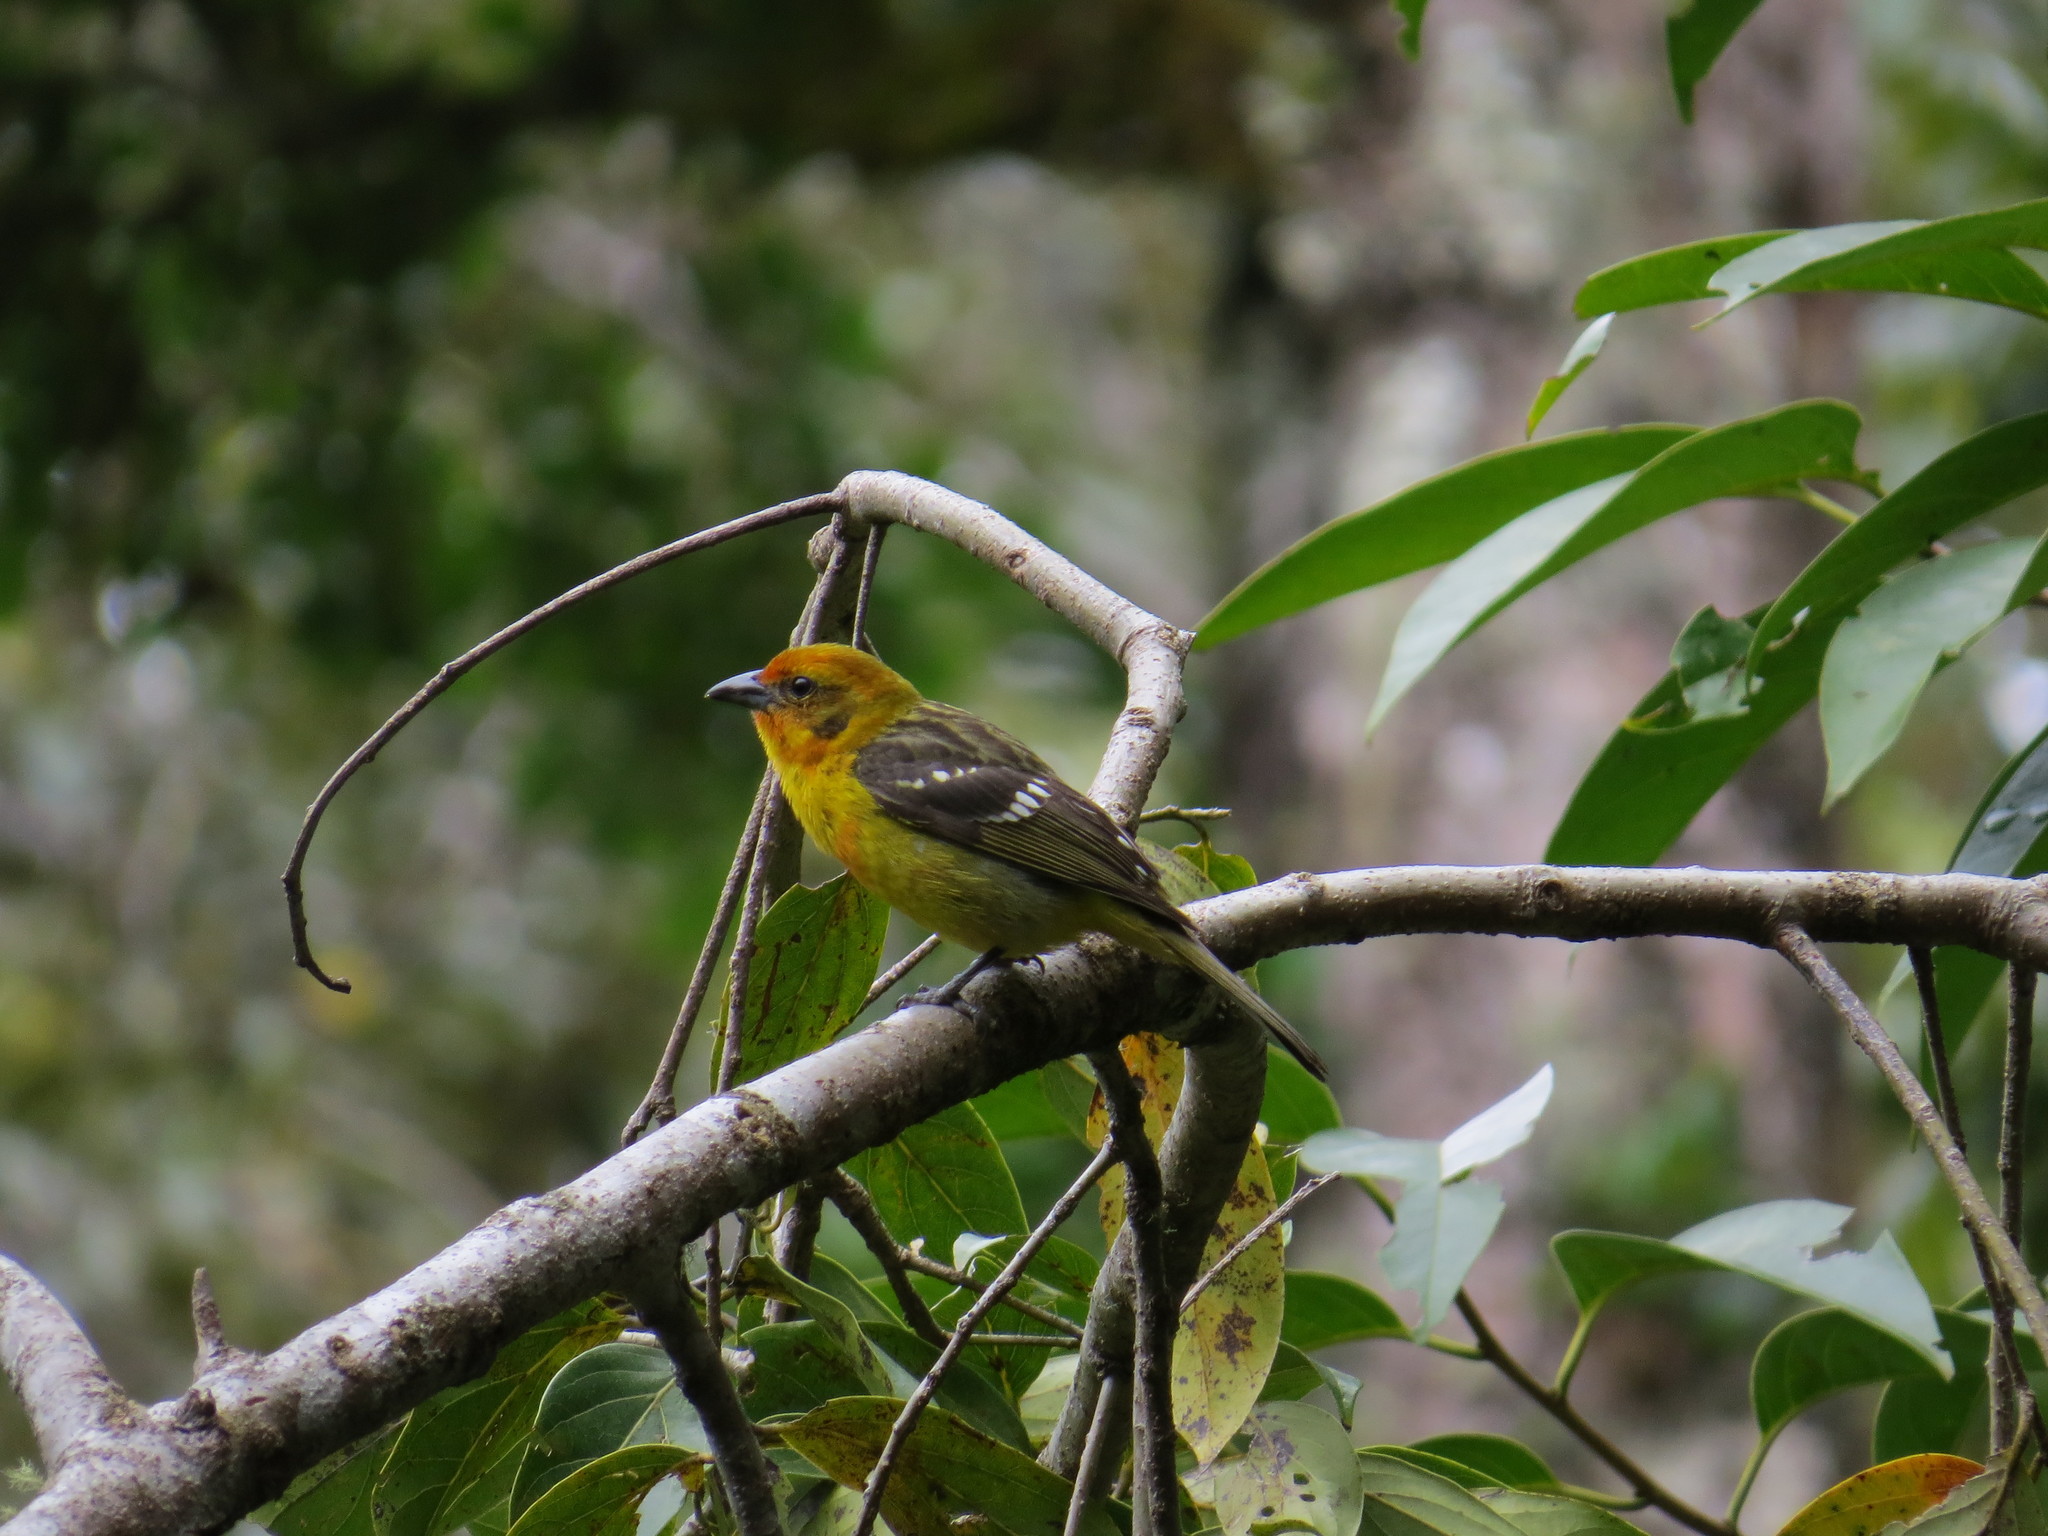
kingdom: Animalia
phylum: Chordata
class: Aves
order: Passeriformes
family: Cardinalidae
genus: Piranga
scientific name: Piranga bidentata
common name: Flame-colored tanager
